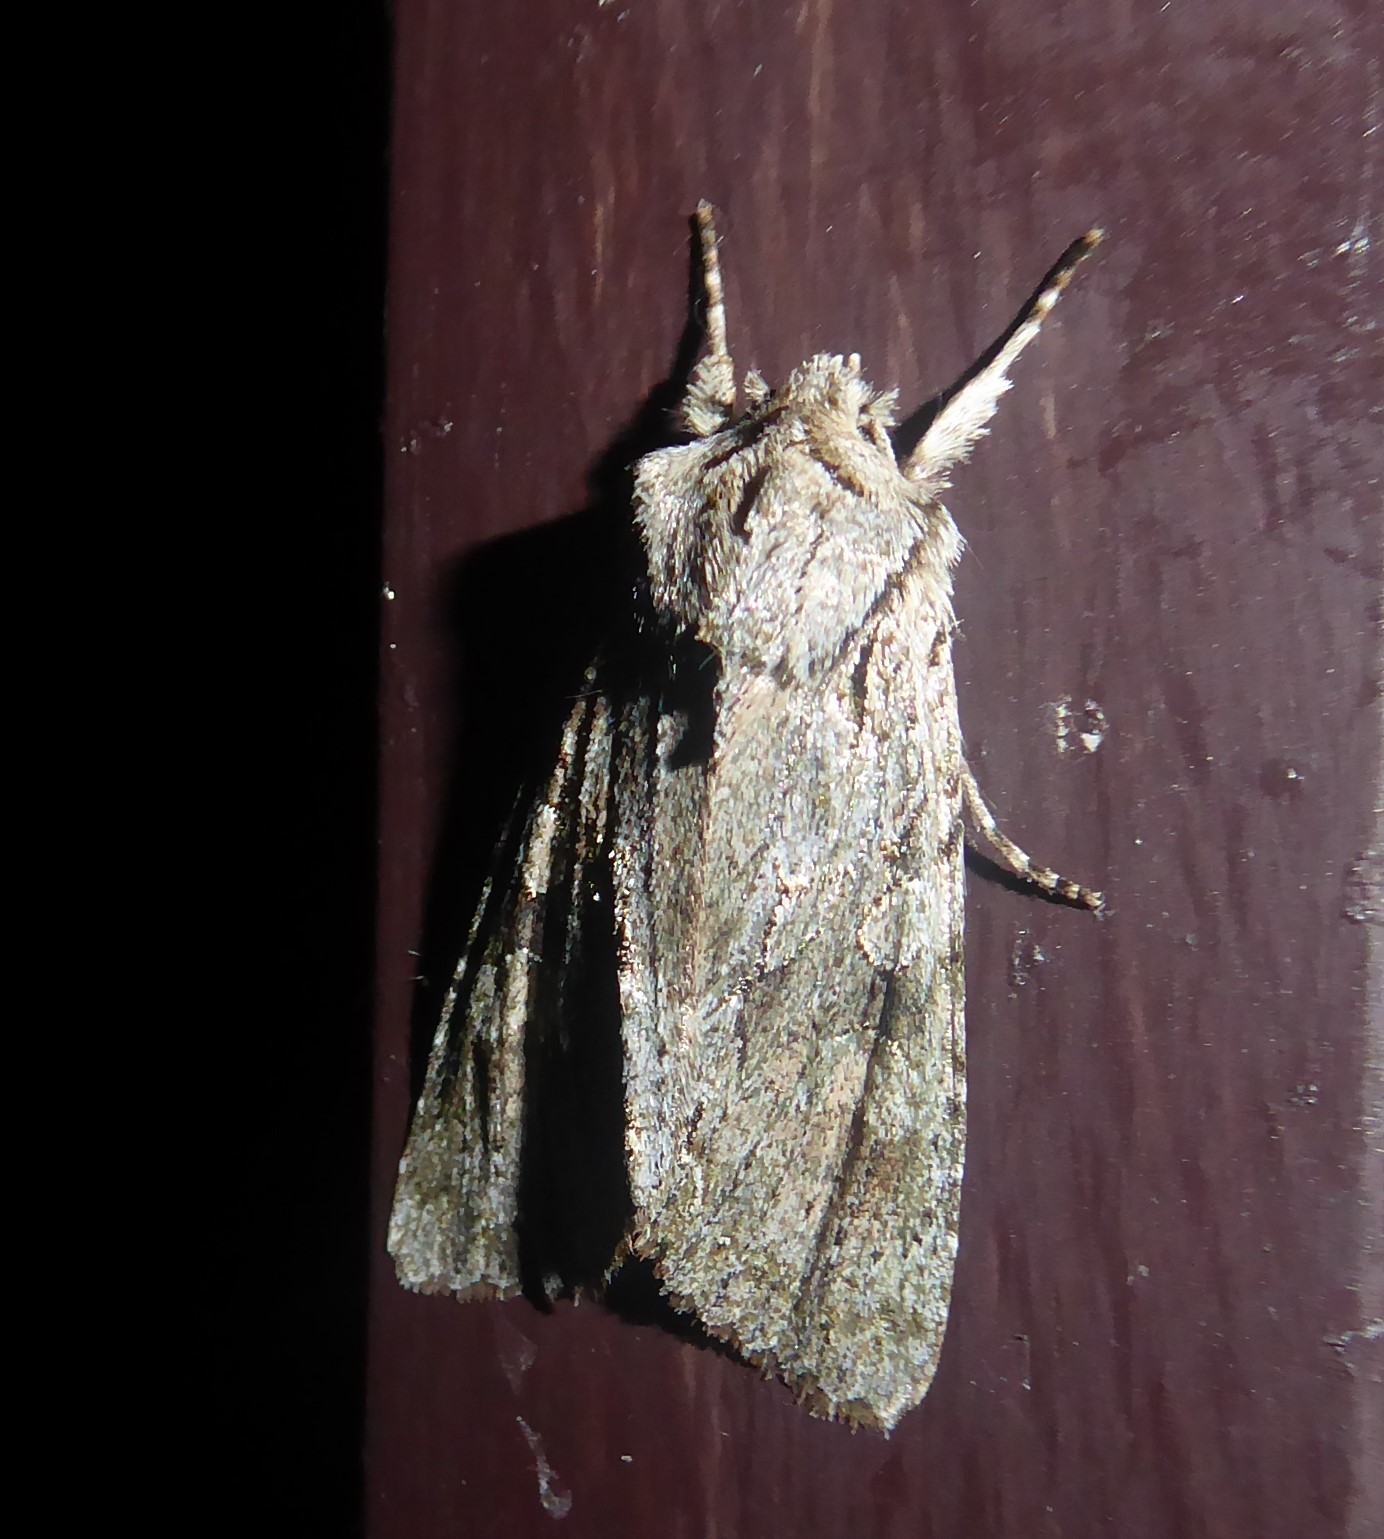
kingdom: Animalia
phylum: Arthropoda
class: Insecta
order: Lepidoptera
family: Noctuidae
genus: Ichneutica
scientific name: Ichneutica mutans
